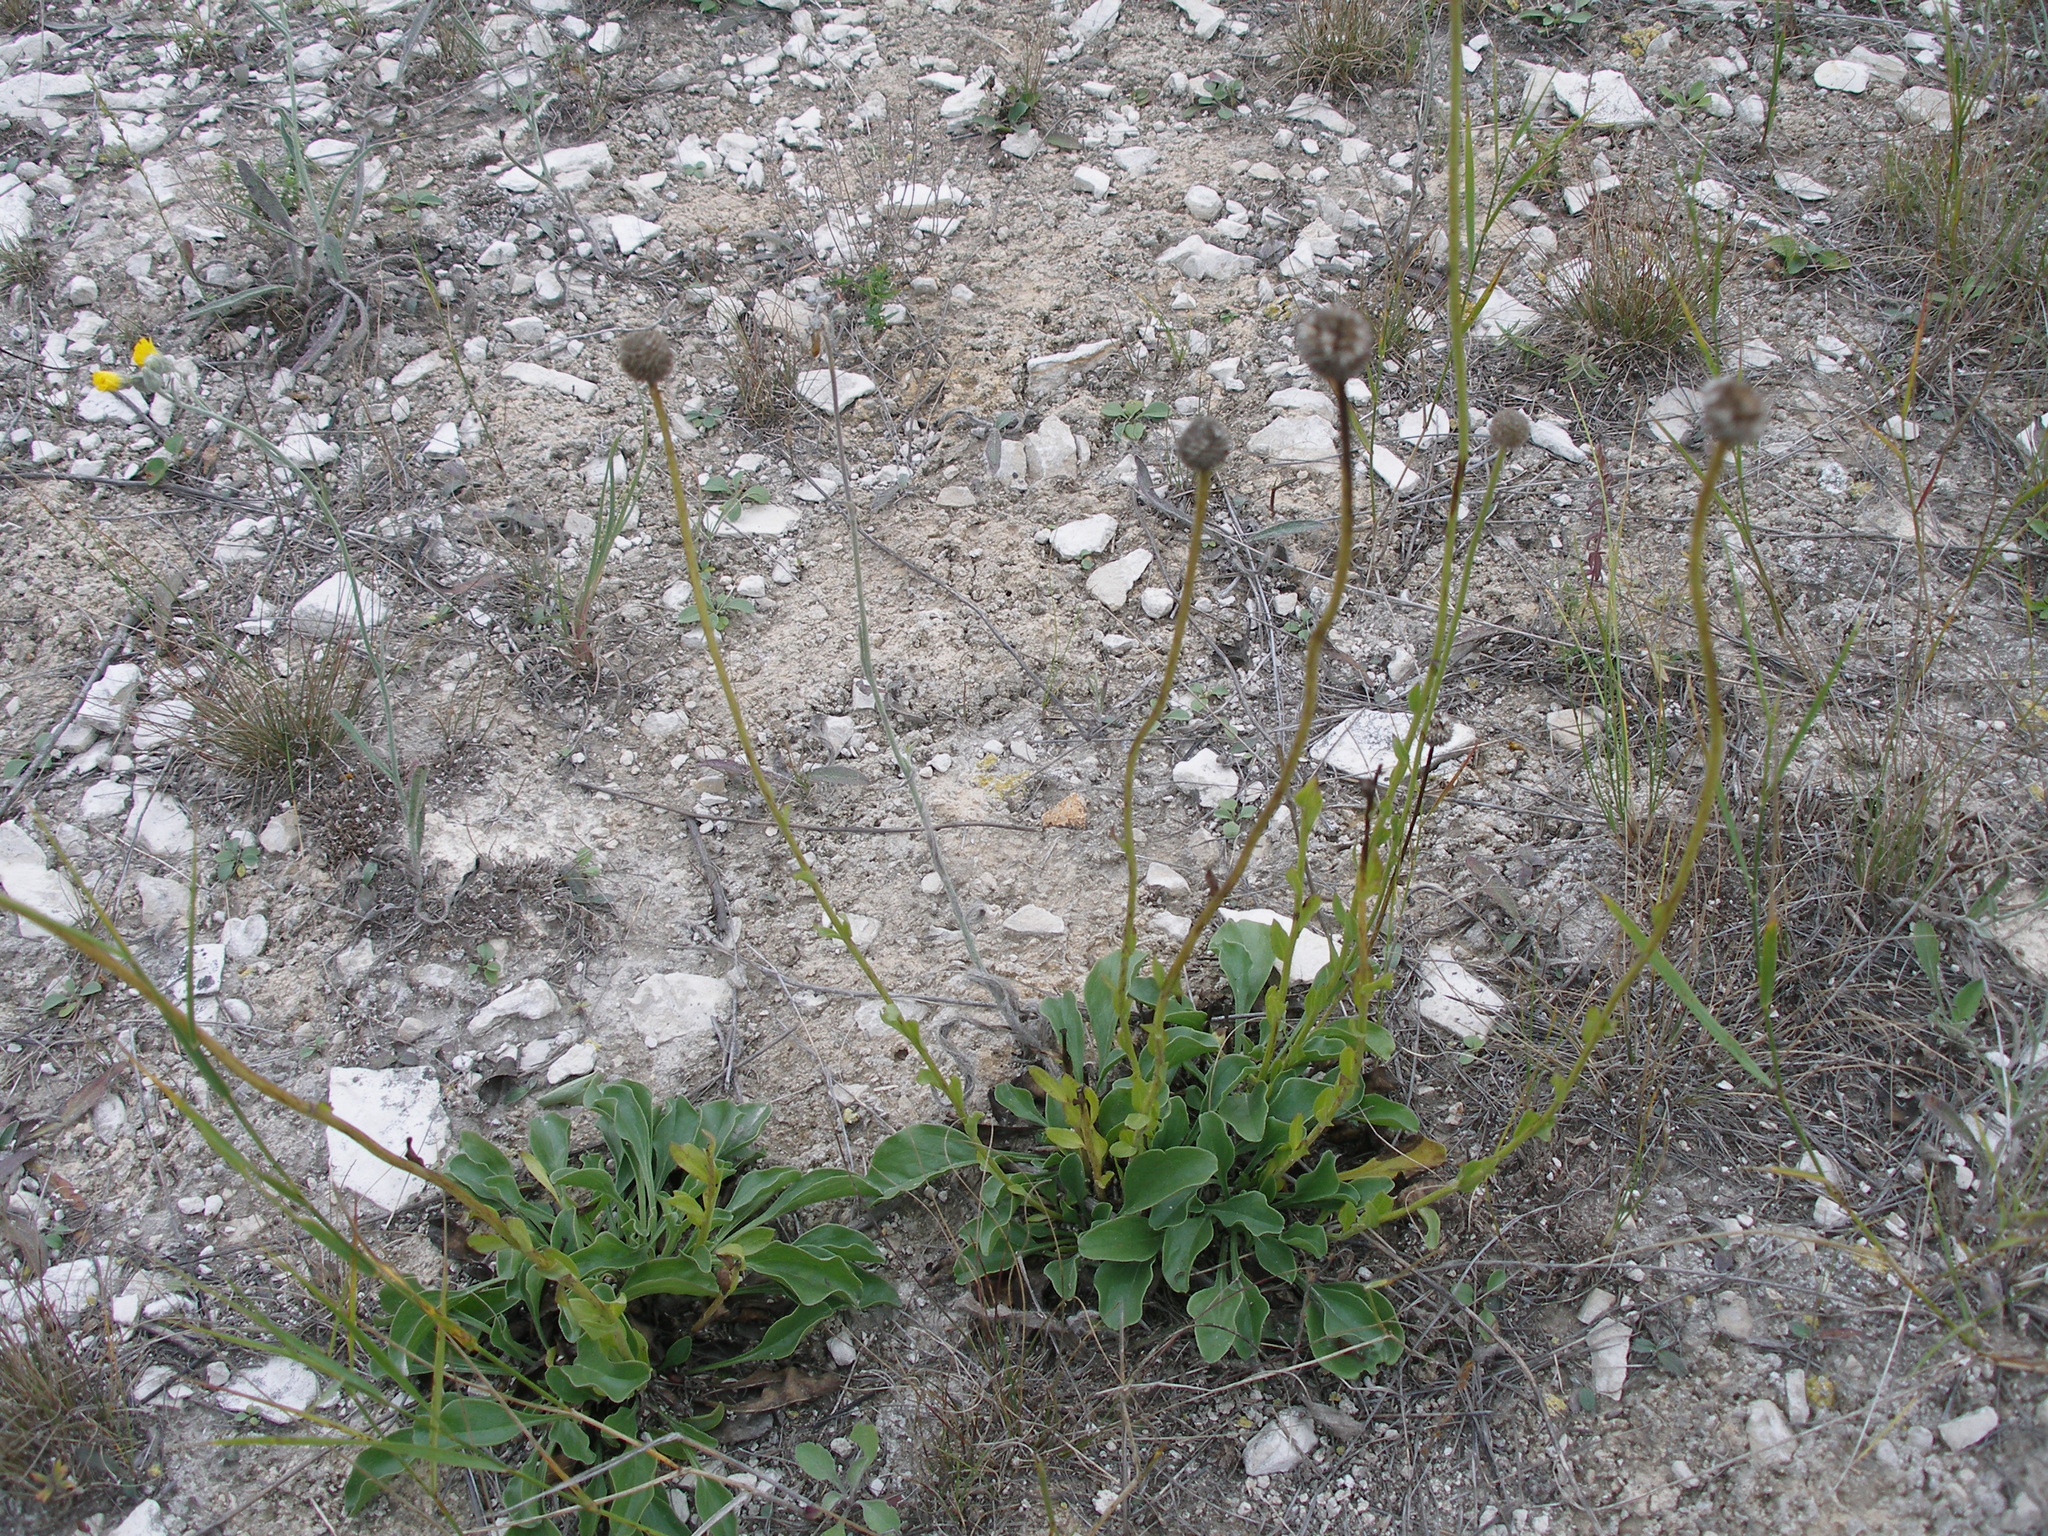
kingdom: Plantae
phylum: Tracheophyta
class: Magnoliopsida
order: Lamiales
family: Plantaginaceae
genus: Globularia
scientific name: Globularia bisnagarica
